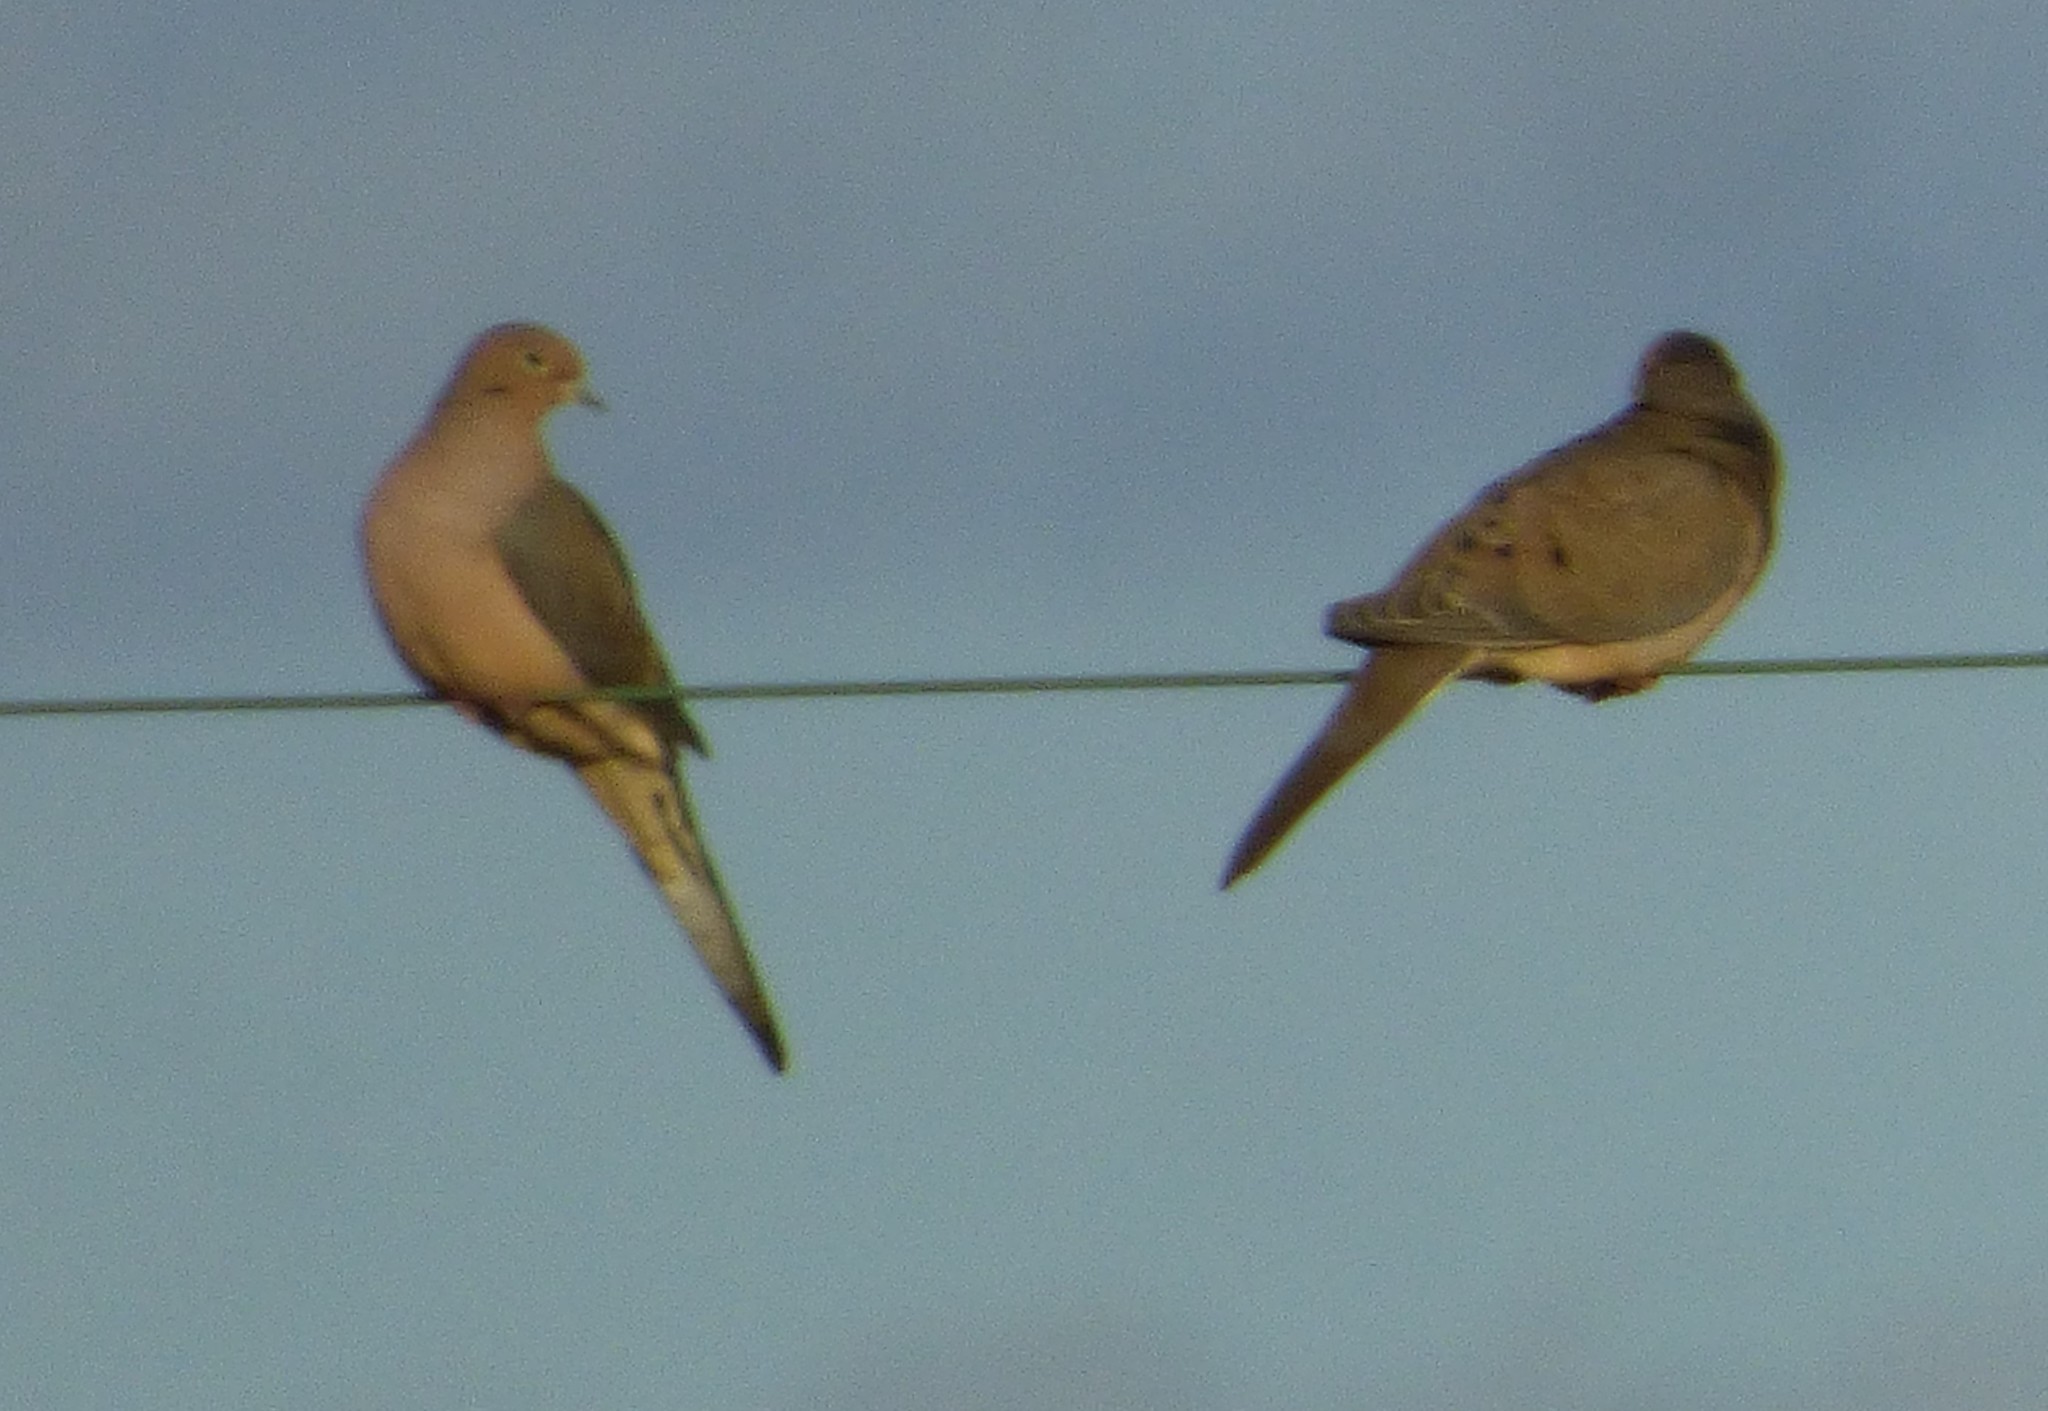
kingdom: Animalia
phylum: Chordata
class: Aves
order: Columbiformes
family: Columbidae
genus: Zenaida
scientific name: Zenaida macroura
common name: Mourning dove
